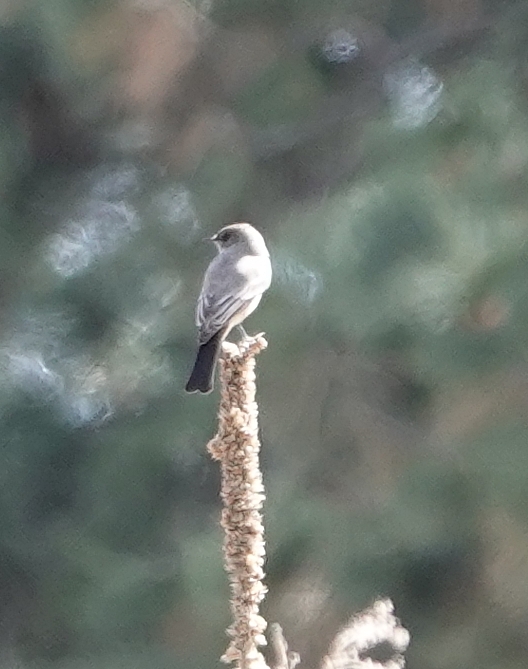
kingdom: Animalia
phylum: Chordata
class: Aves
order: Passeriformes
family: Tyrannidae
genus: Sayornis
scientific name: Sayornis saya
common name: Say's phoebe
